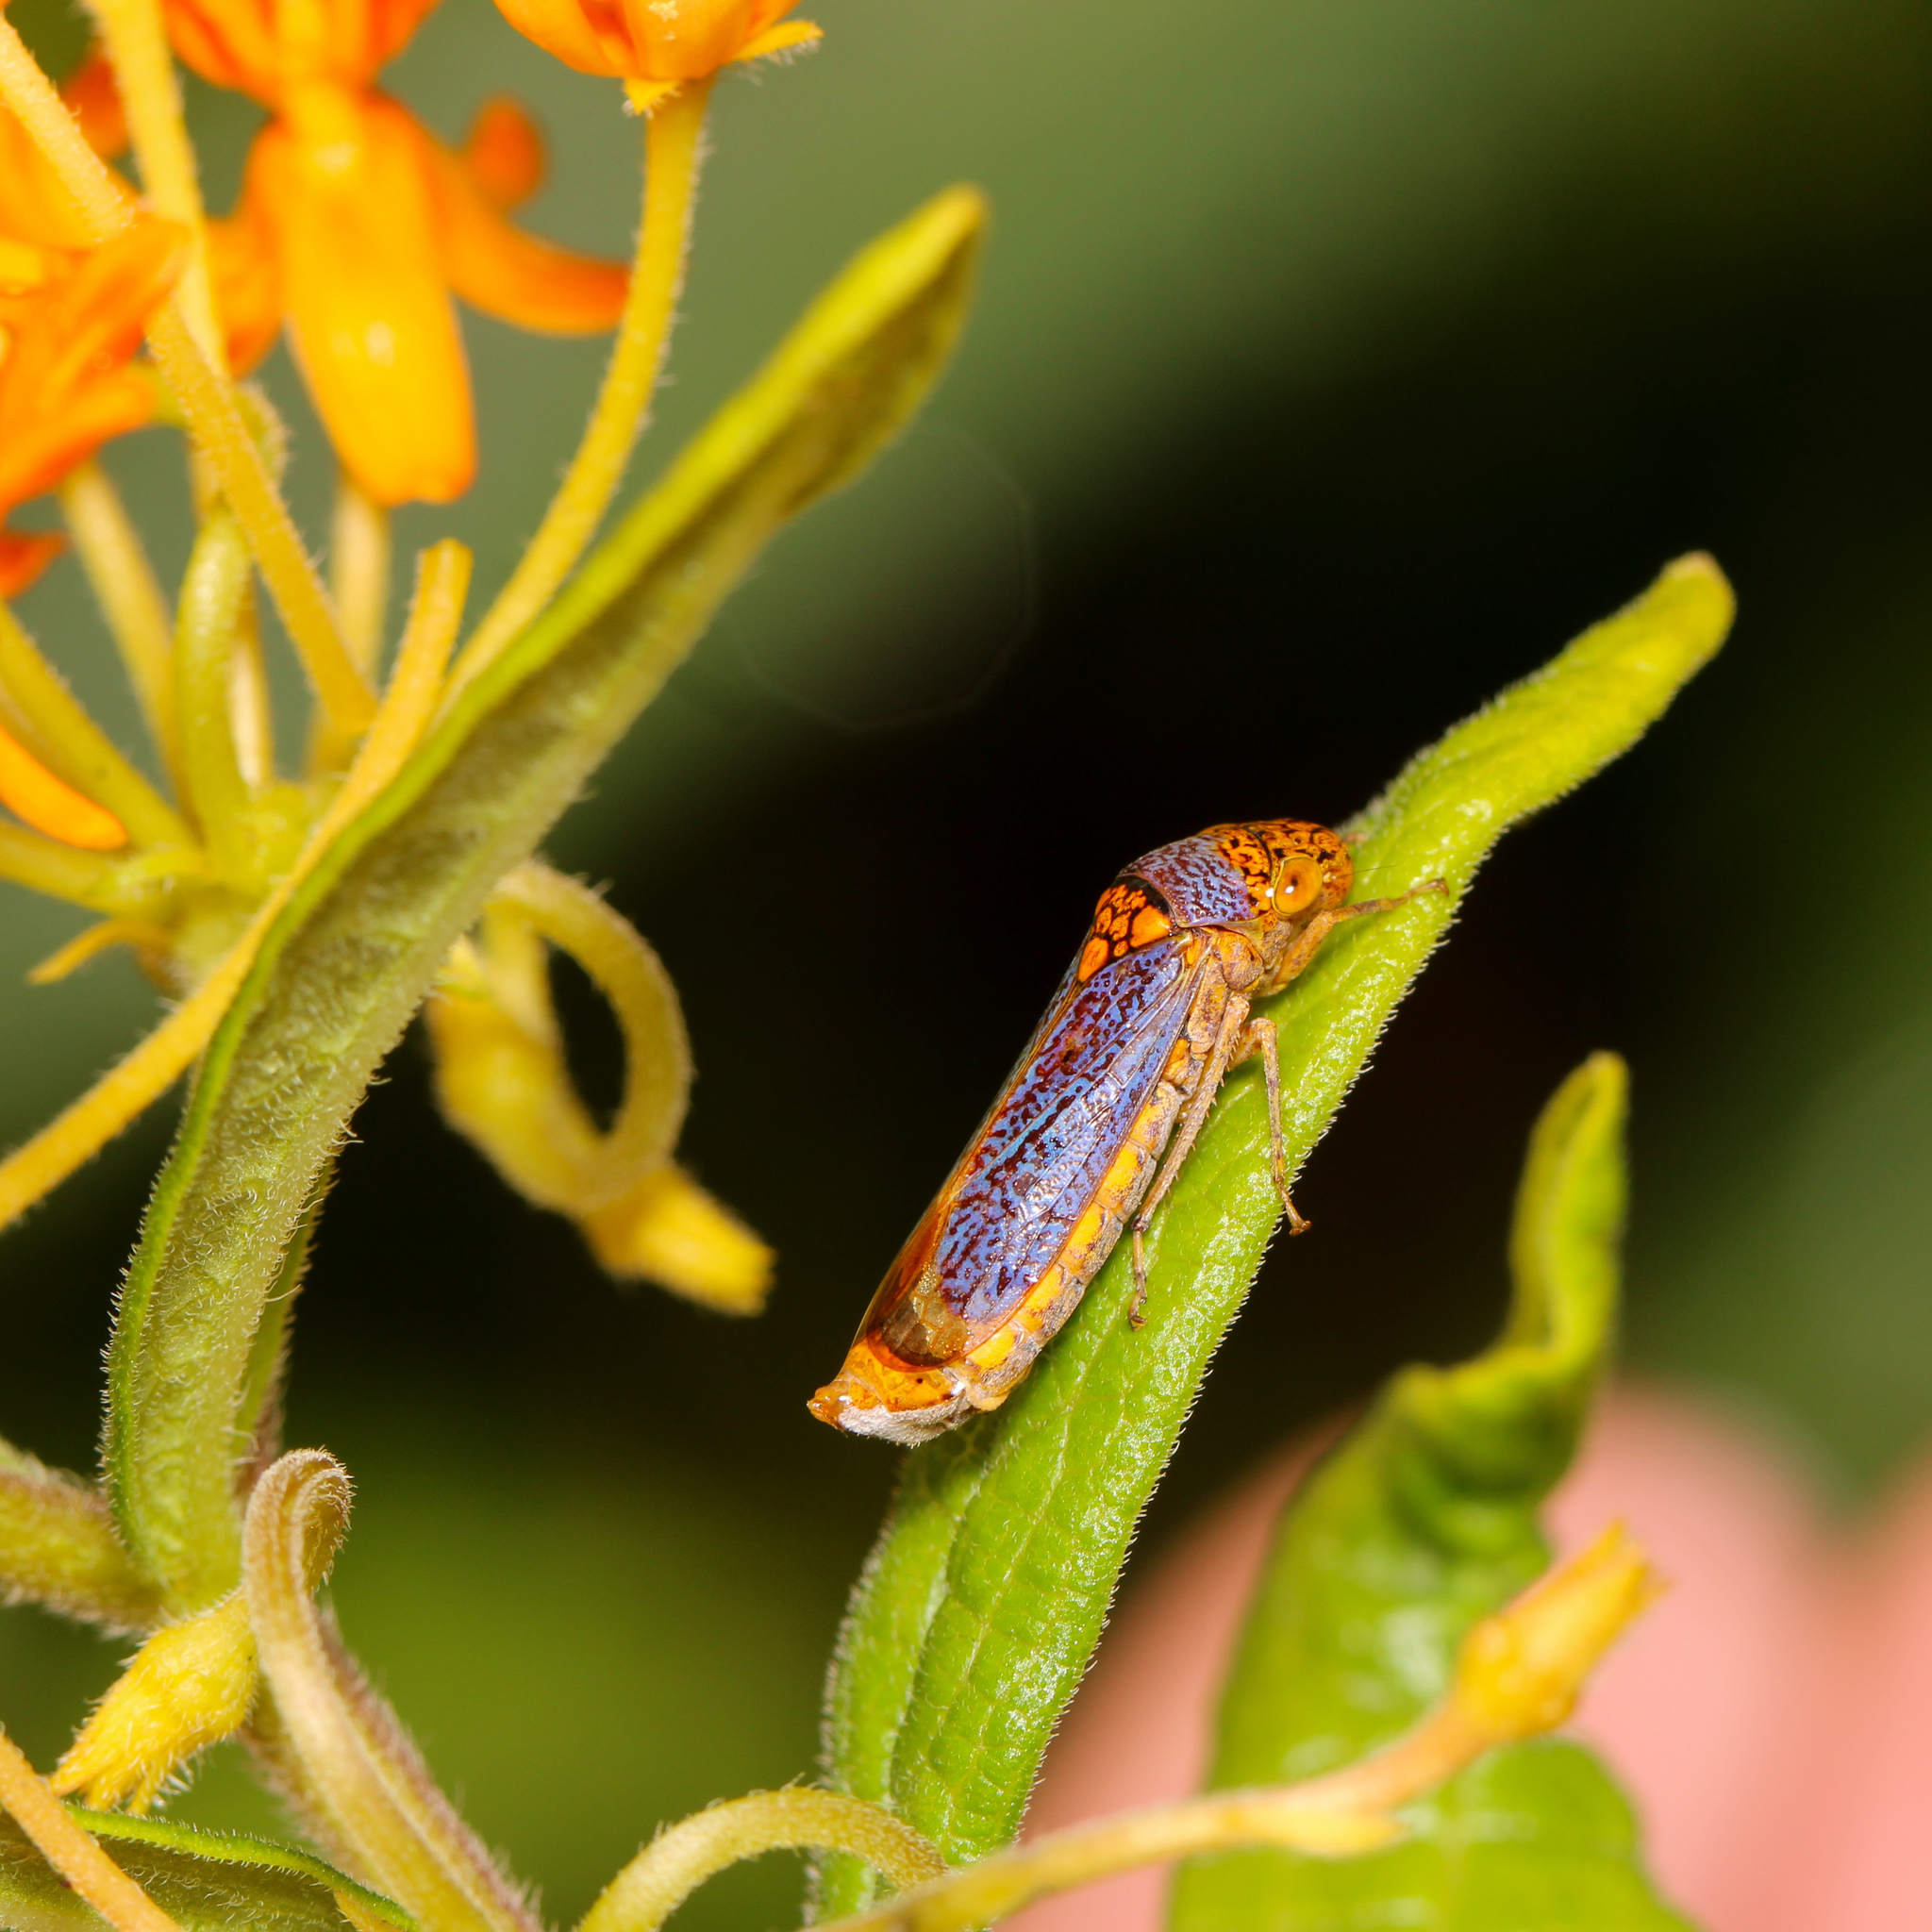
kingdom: Animalia
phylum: Arthropoda
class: Insecta
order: Hemiptera
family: Cicadellidae
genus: Oncometopia
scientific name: Oncometopia orbona
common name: Broad-headed sharpshooter
